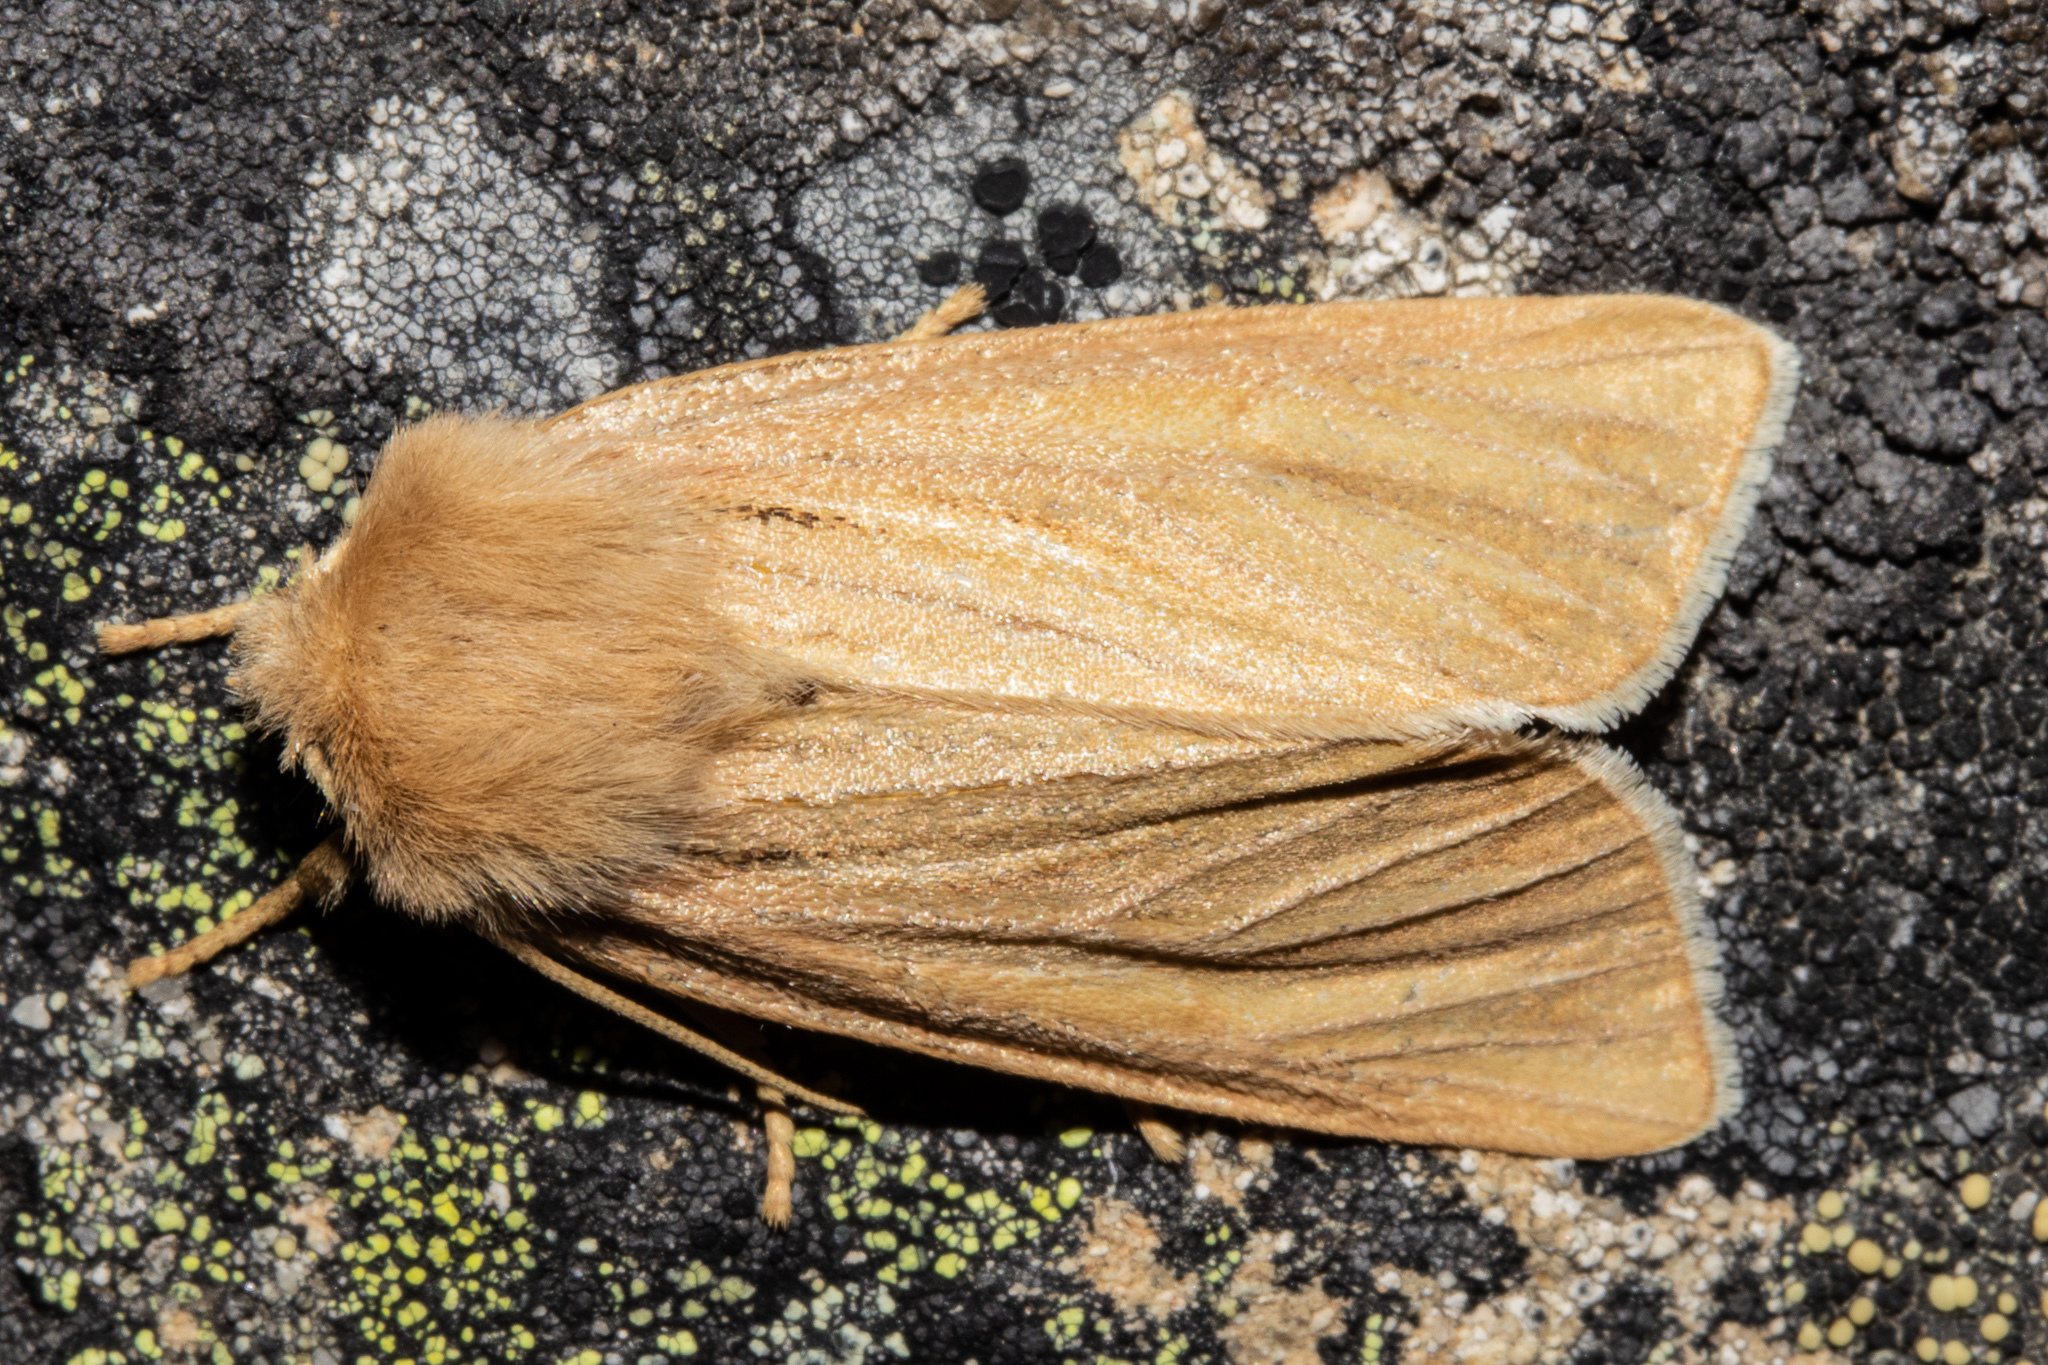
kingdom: Animalia
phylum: Arthropoda
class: Insecta
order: Lepidoptera
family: Noctuidae
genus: Ichneutica
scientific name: Ichneutica caraunias
